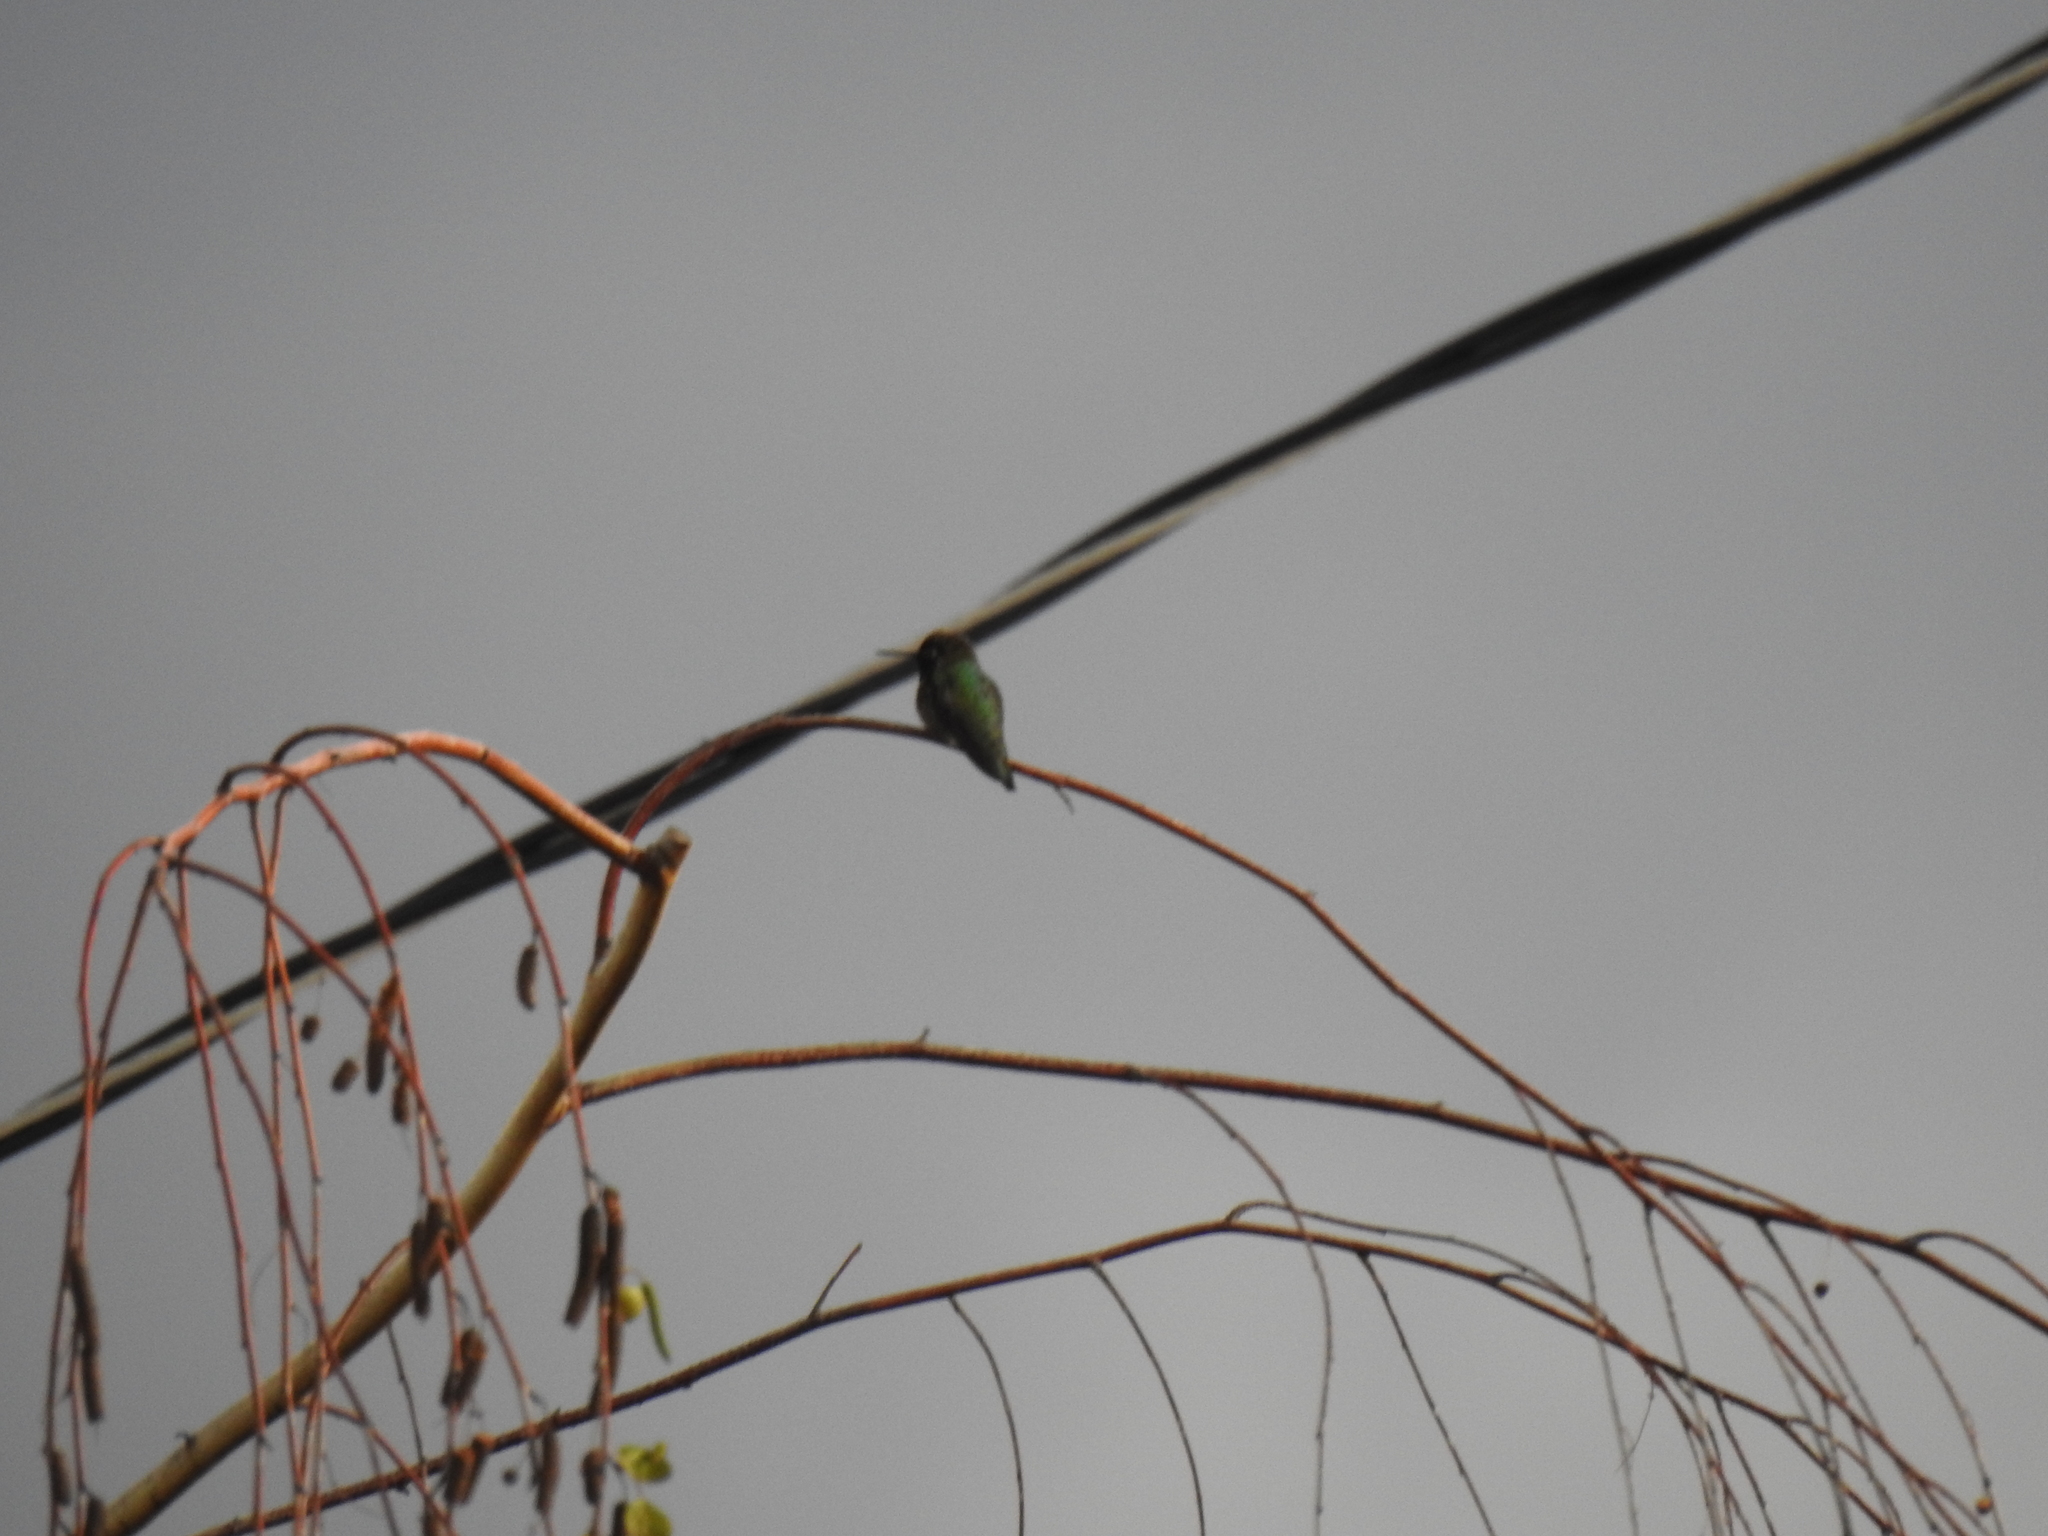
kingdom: Animalia
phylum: Chordata
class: Aves
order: Apodiformes
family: Trochilidae
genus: Calypte
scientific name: Calypte anna
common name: Anna's hummingbird
